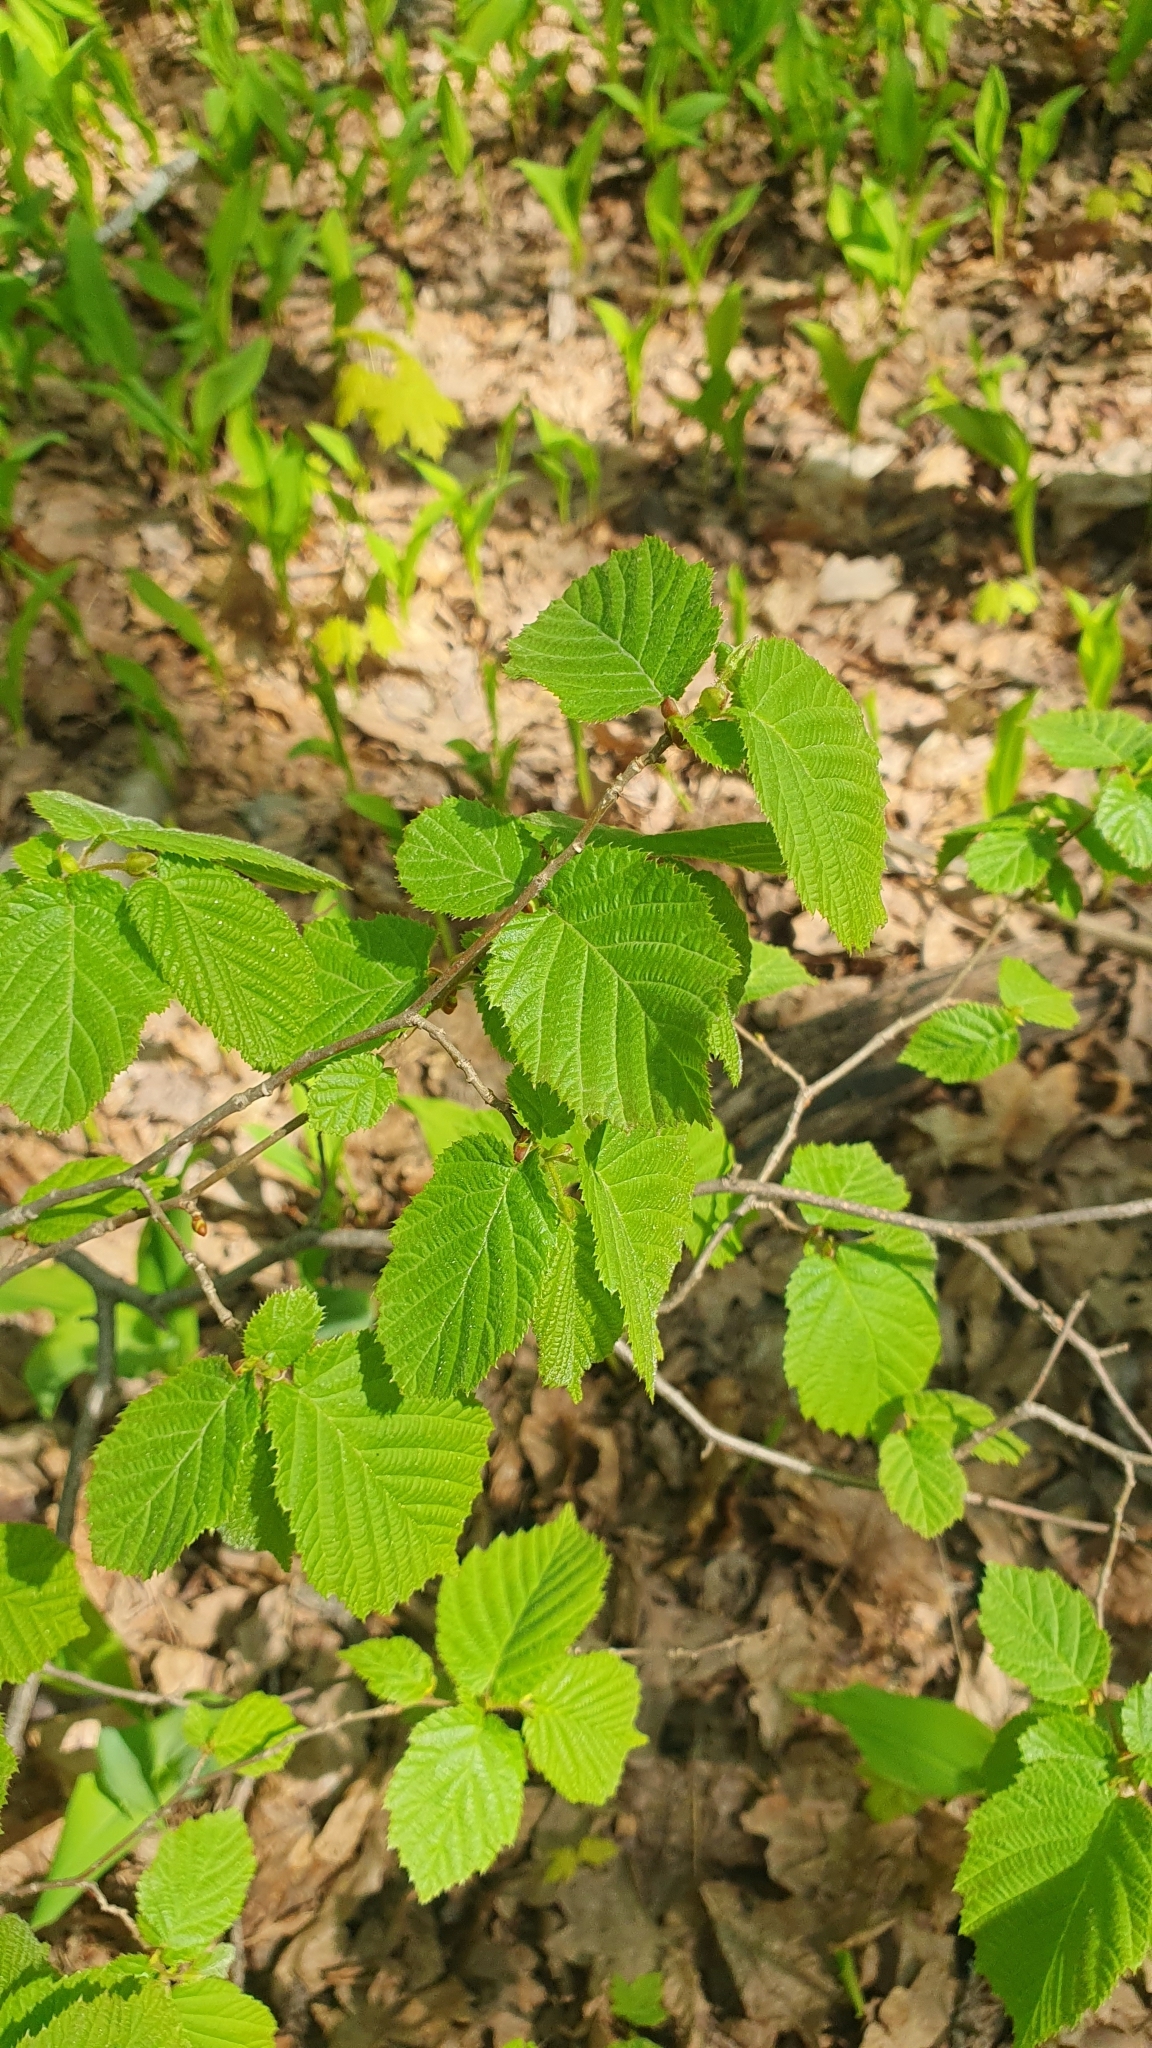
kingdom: Plantae
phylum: Tracheophyta
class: Magnoliopsida
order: Fagales
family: Betulaceae
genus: Corylus
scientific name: Corylus avellana
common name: European hazel
